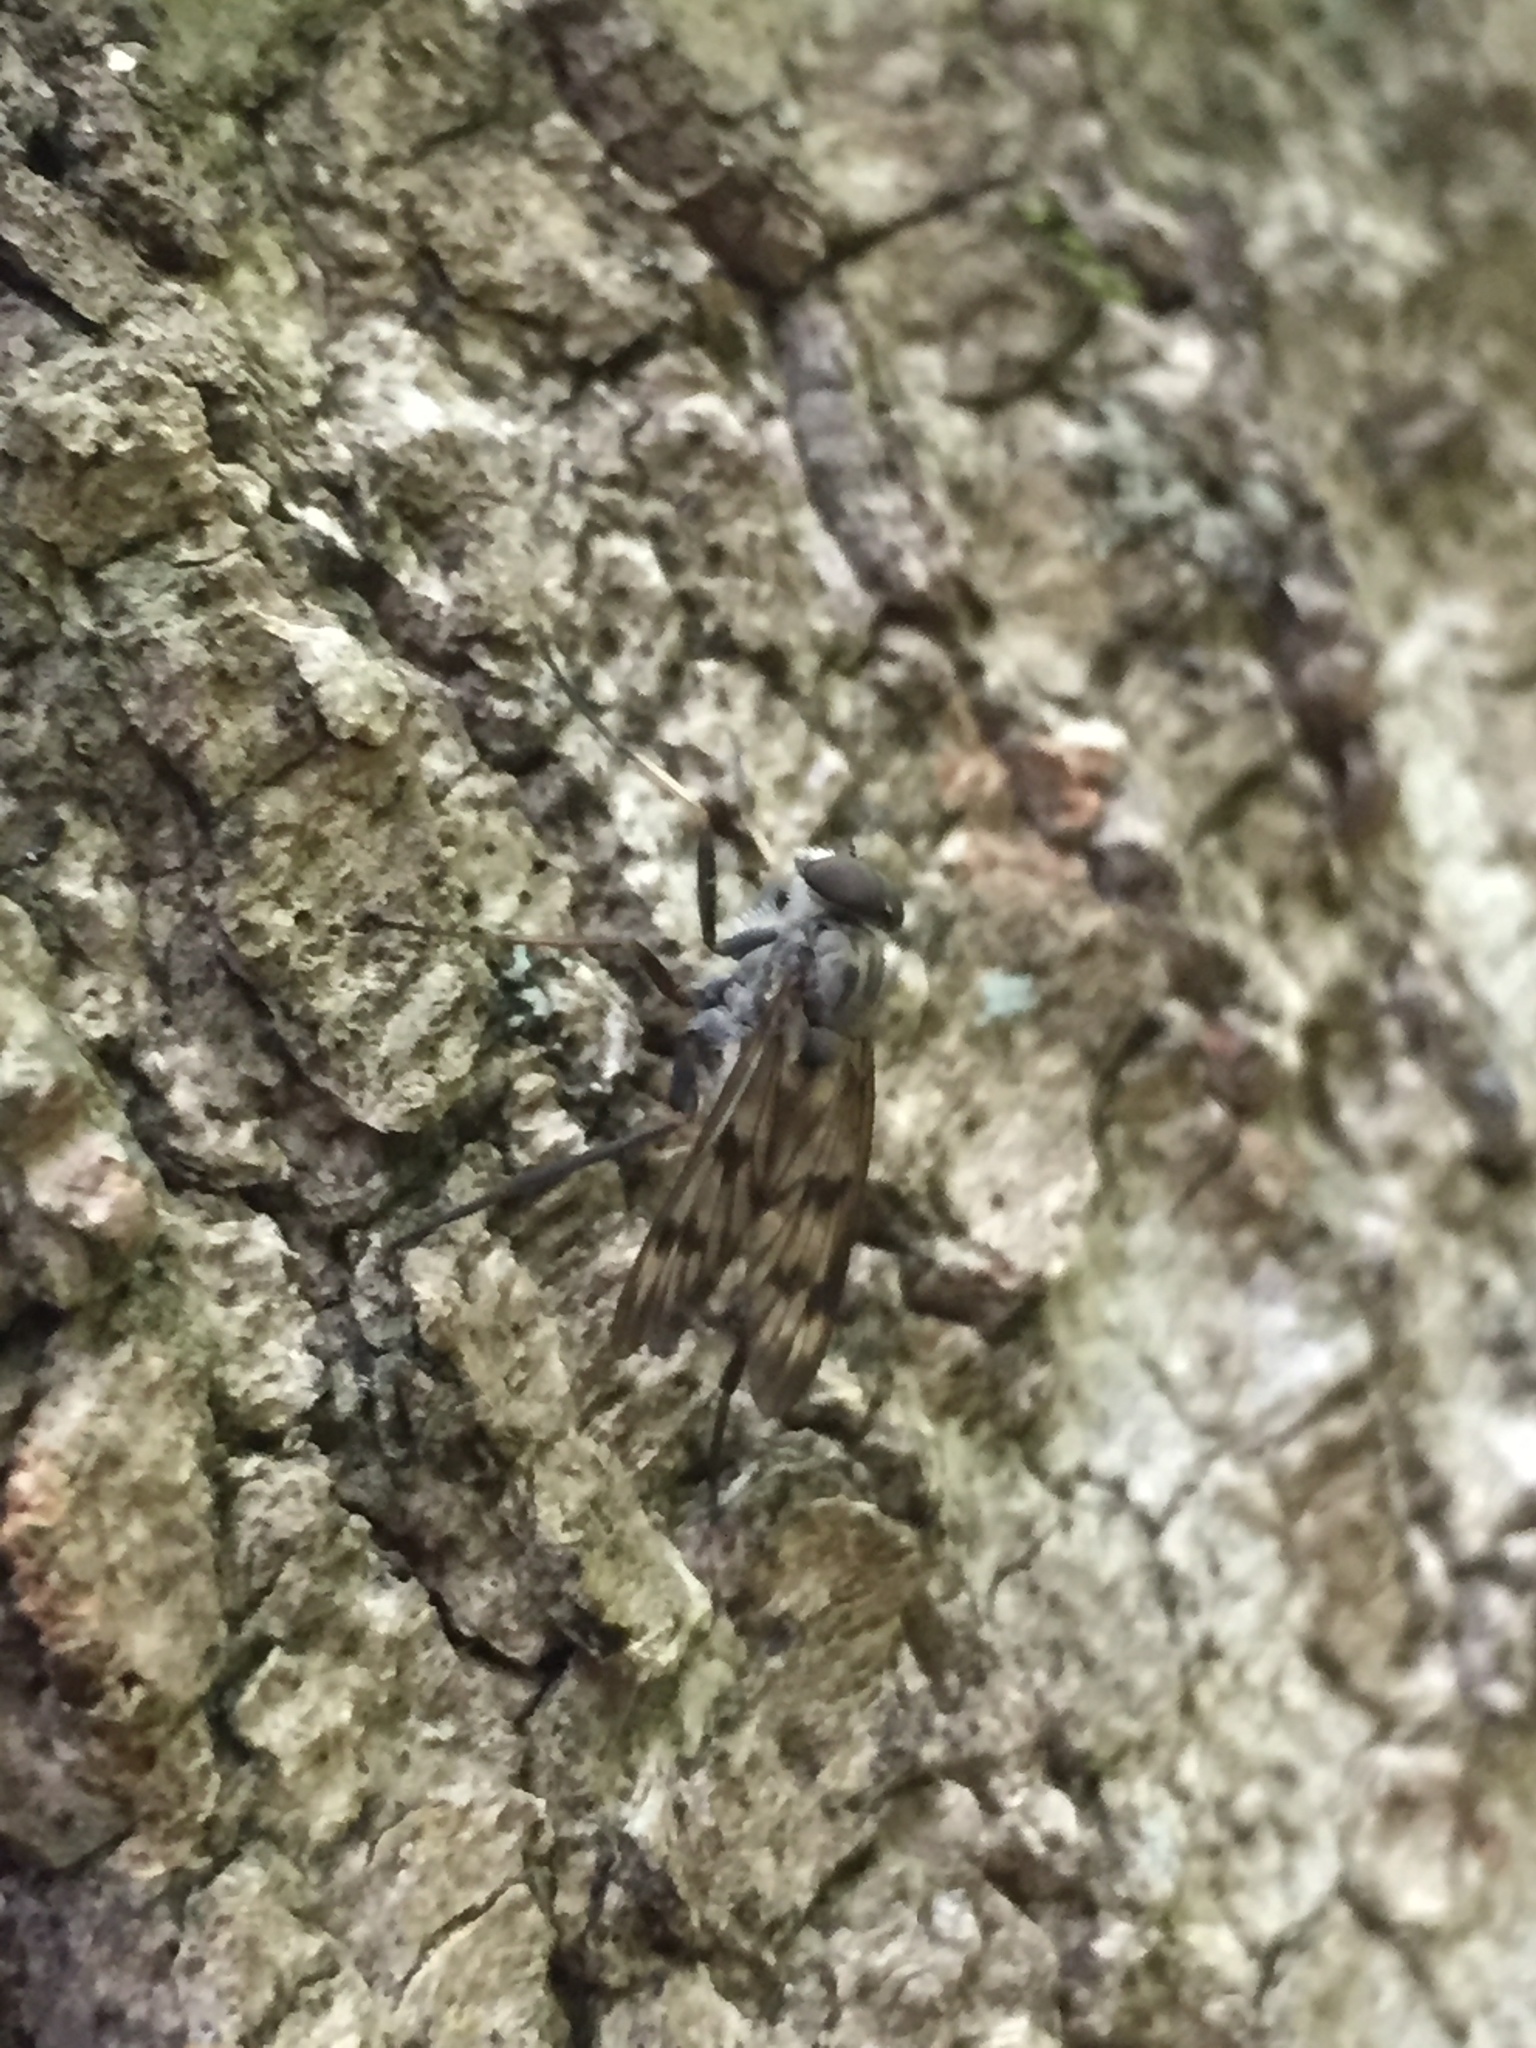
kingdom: Animalia
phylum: Arthropoda
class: Insecta
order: Diptera
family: Rhagionidae
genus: Rhagio
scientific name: Rhagio mystaceus
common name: Common snipe fly
